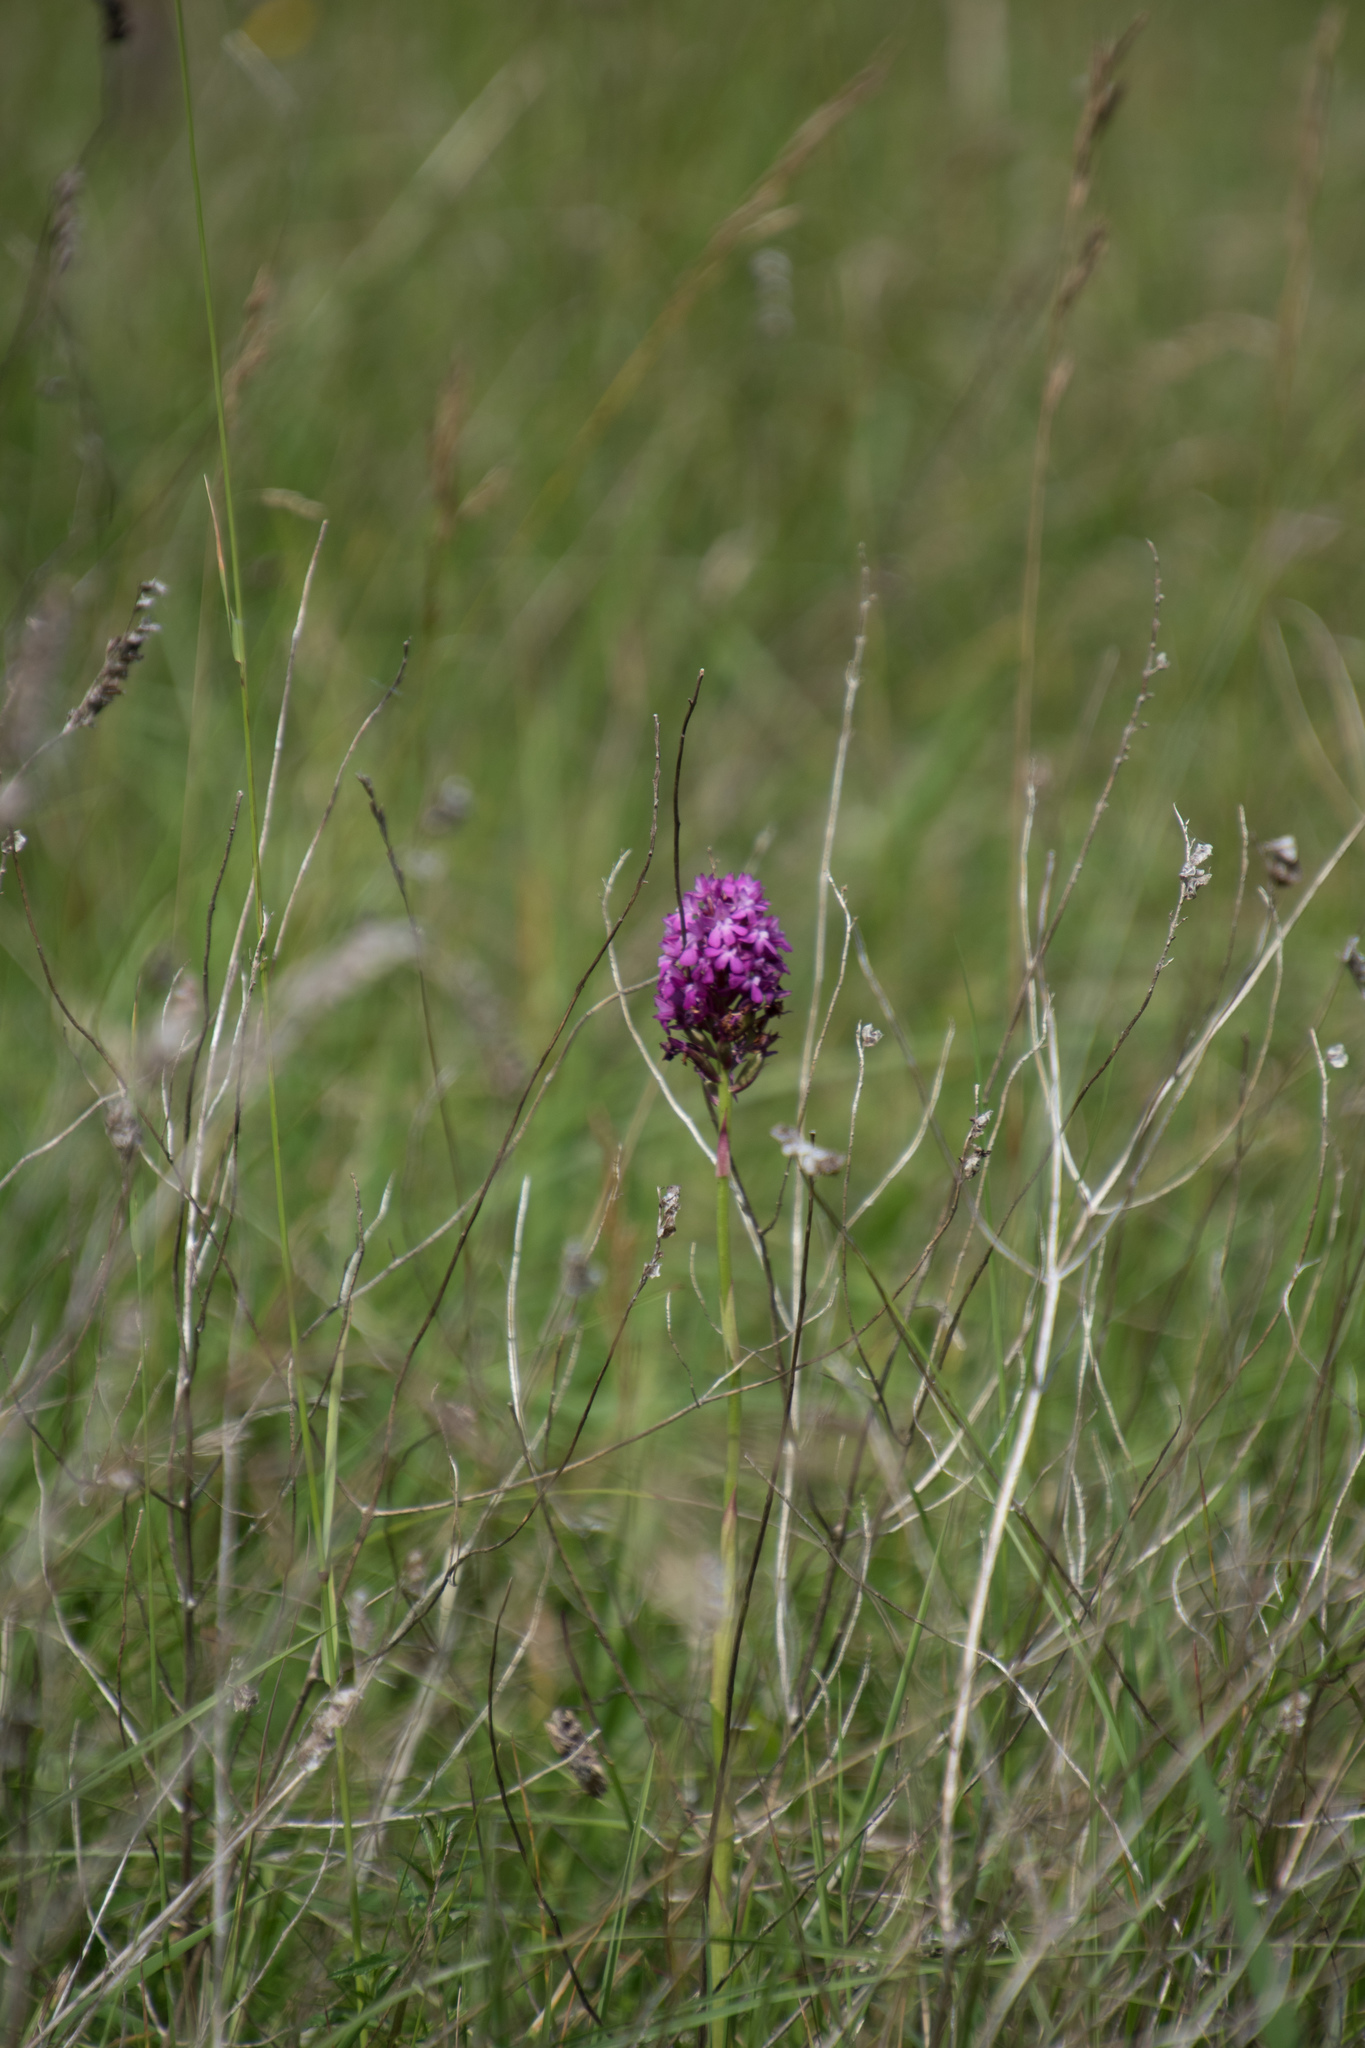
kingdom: Plantae
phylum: Tracheophyta
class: Liliopsida
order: Asparagales
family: Orchidaceae
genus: Anacamptis
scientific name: Anacamptis pyramidalis
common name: Pyramidal orchid
